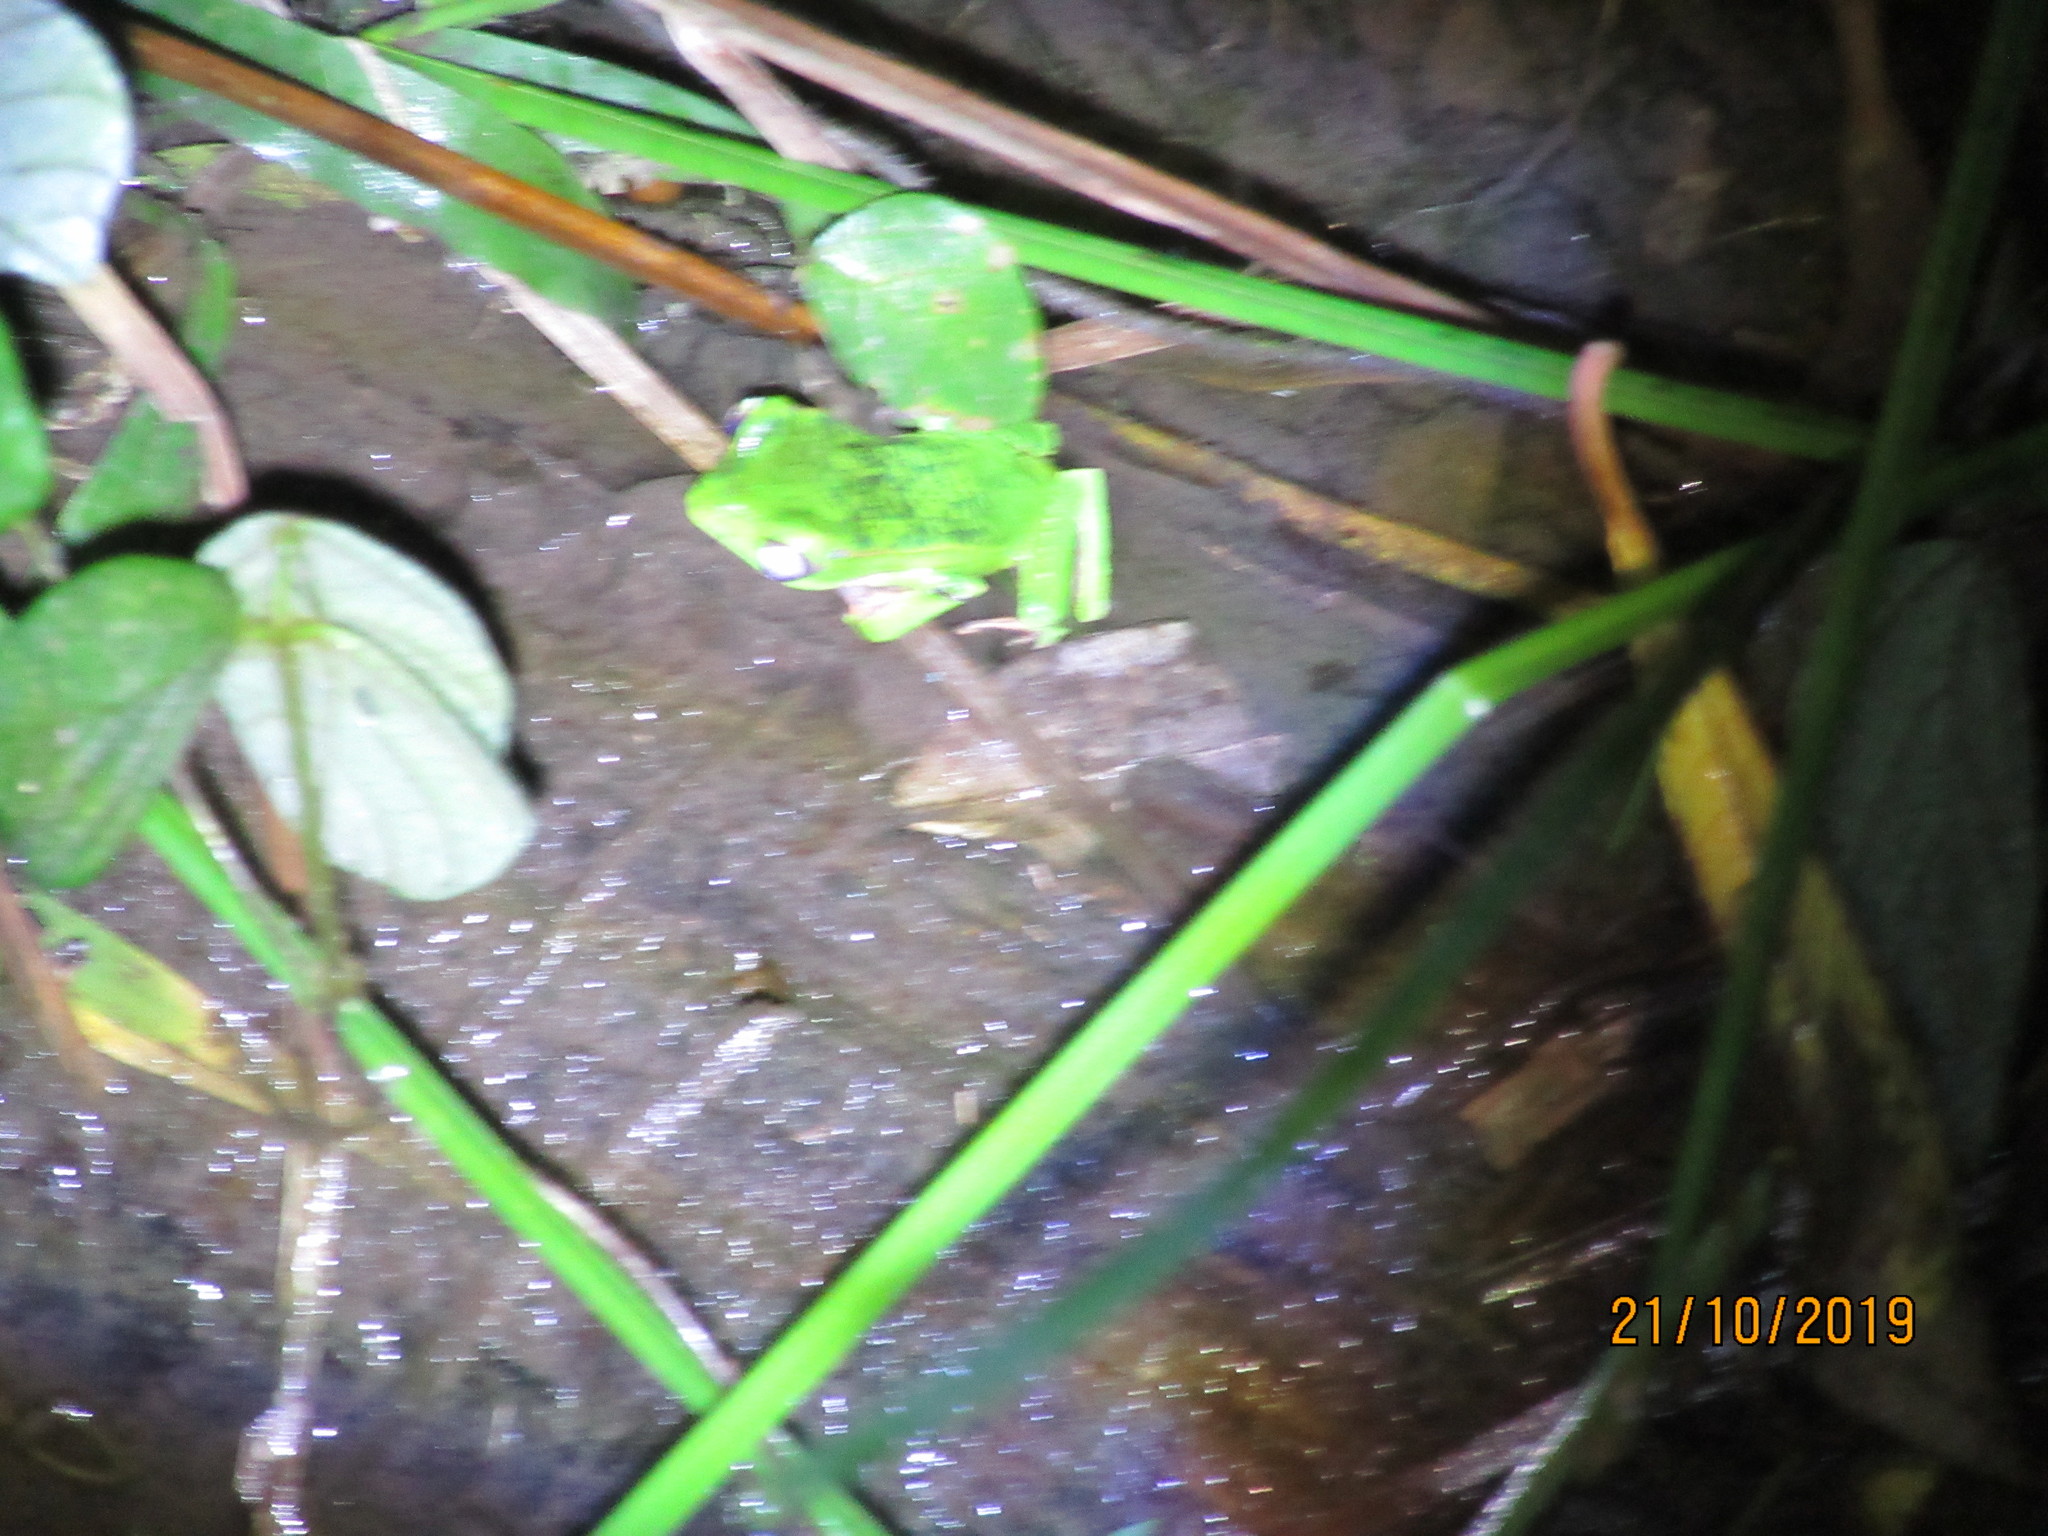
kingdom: Animalia
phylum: Chordata
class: Amphibia
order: Anura
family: Phyllomedusidae
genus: Phyllomedusa
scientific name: Phyllomedusa vaillantii
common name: White-lined leaf frog
